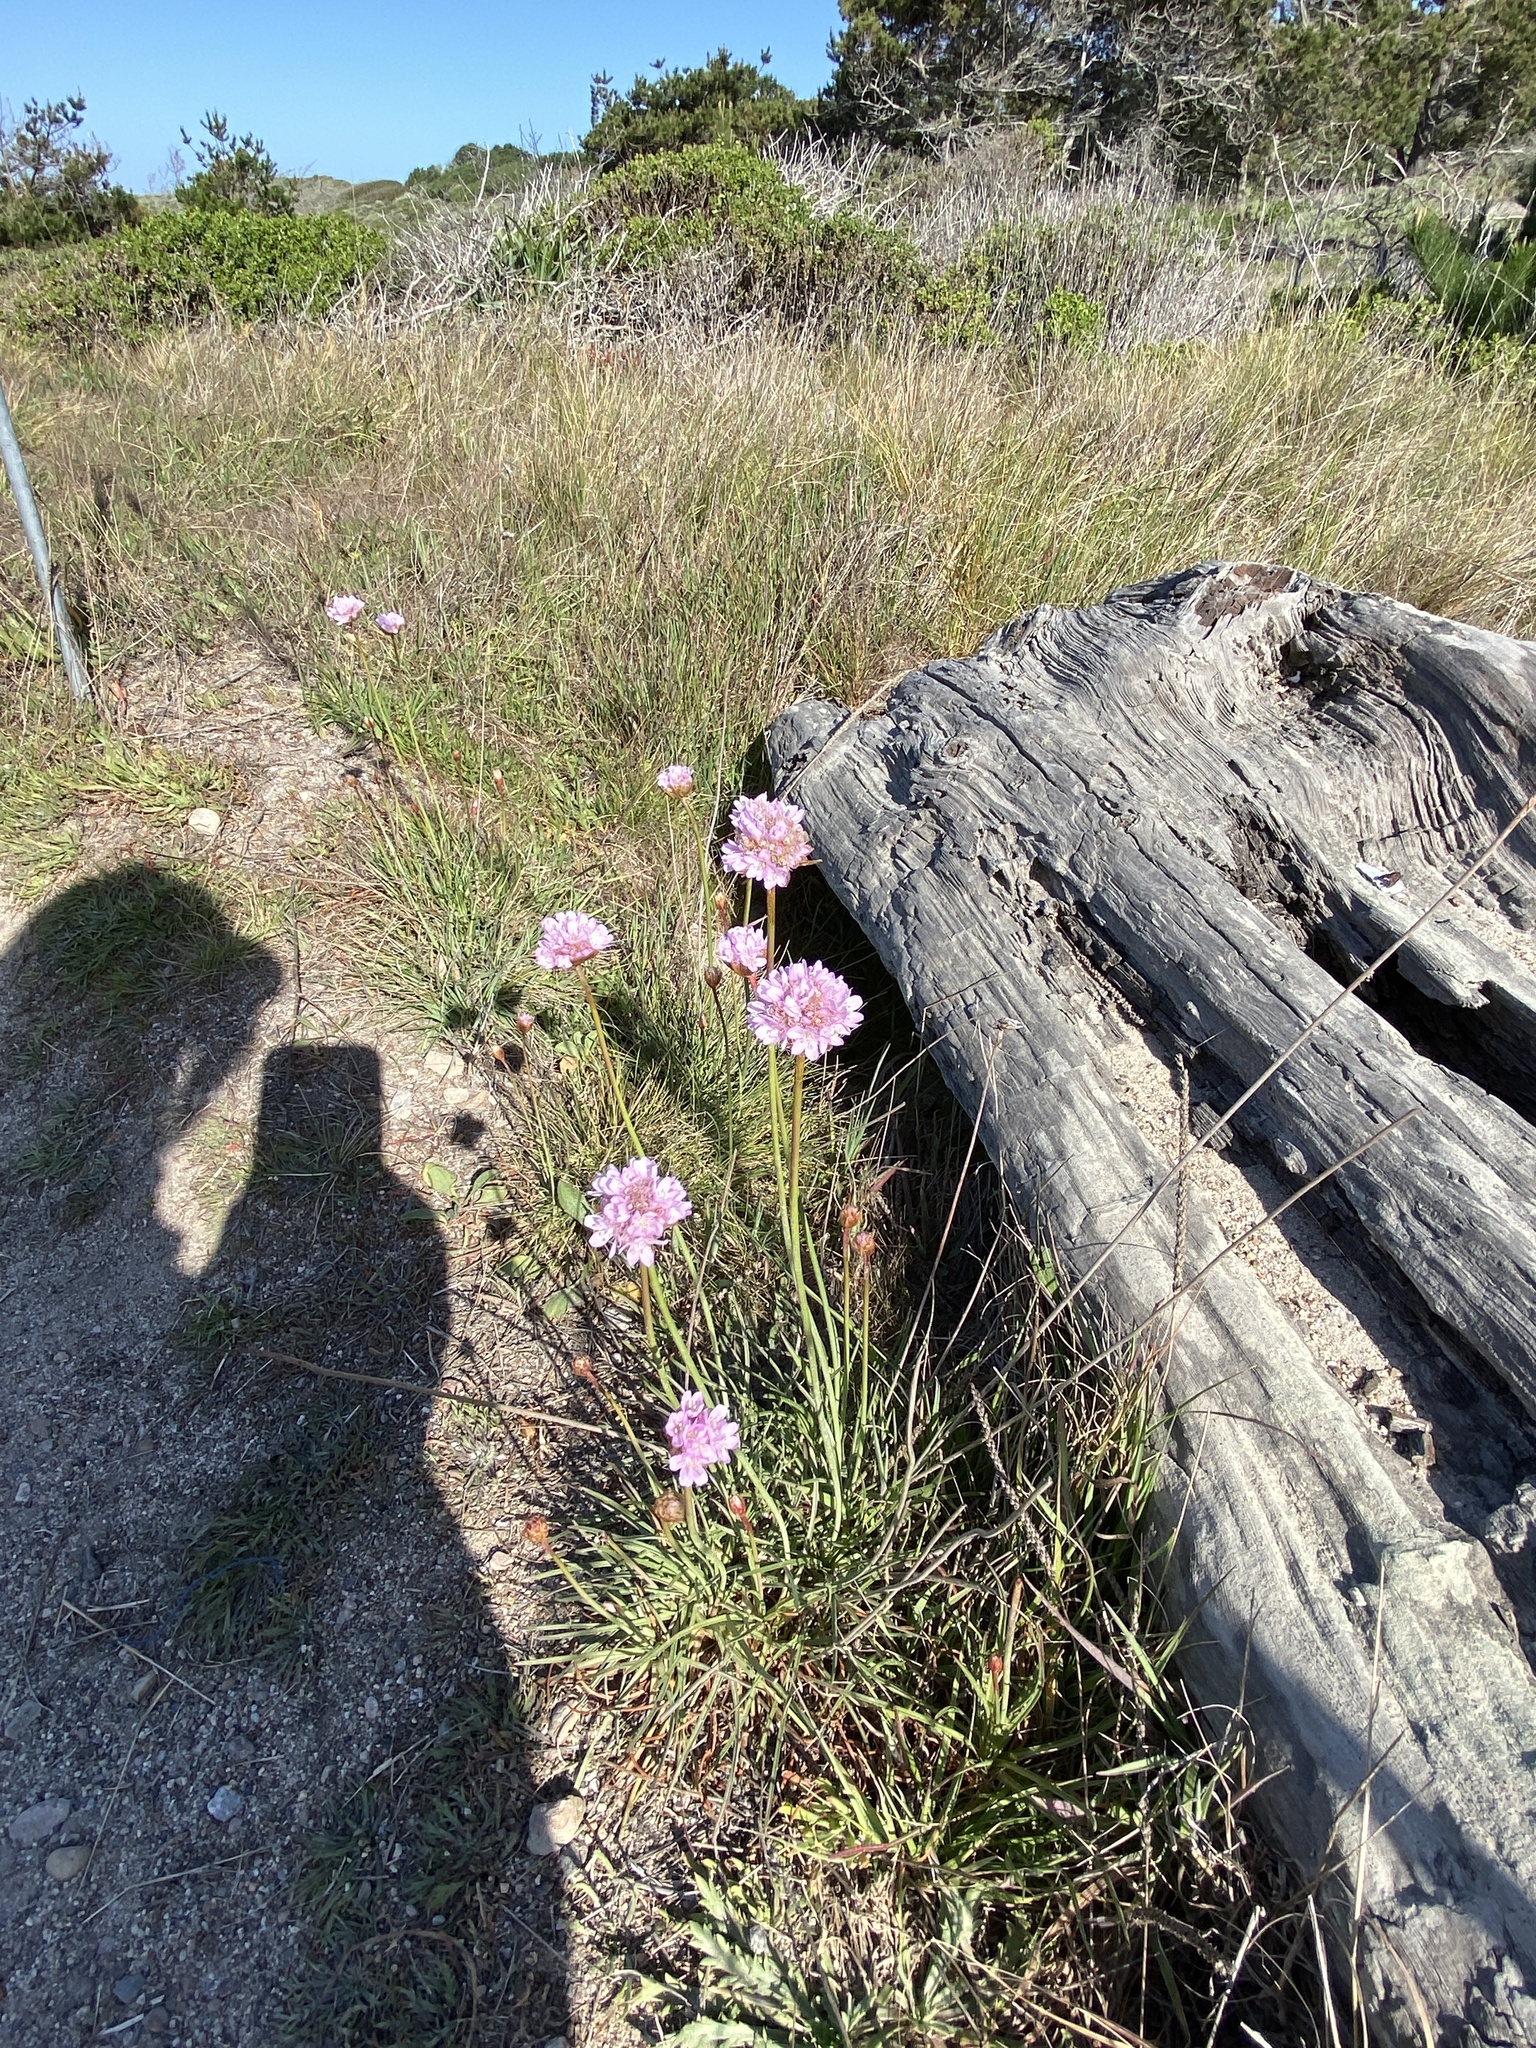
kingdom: Plantae
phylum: Tracheophyta
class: Magnoliopsida
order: Caryophyllales
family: Plumbaginaceae
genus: Armeria
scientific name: Armeria maritima
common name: Thrift
